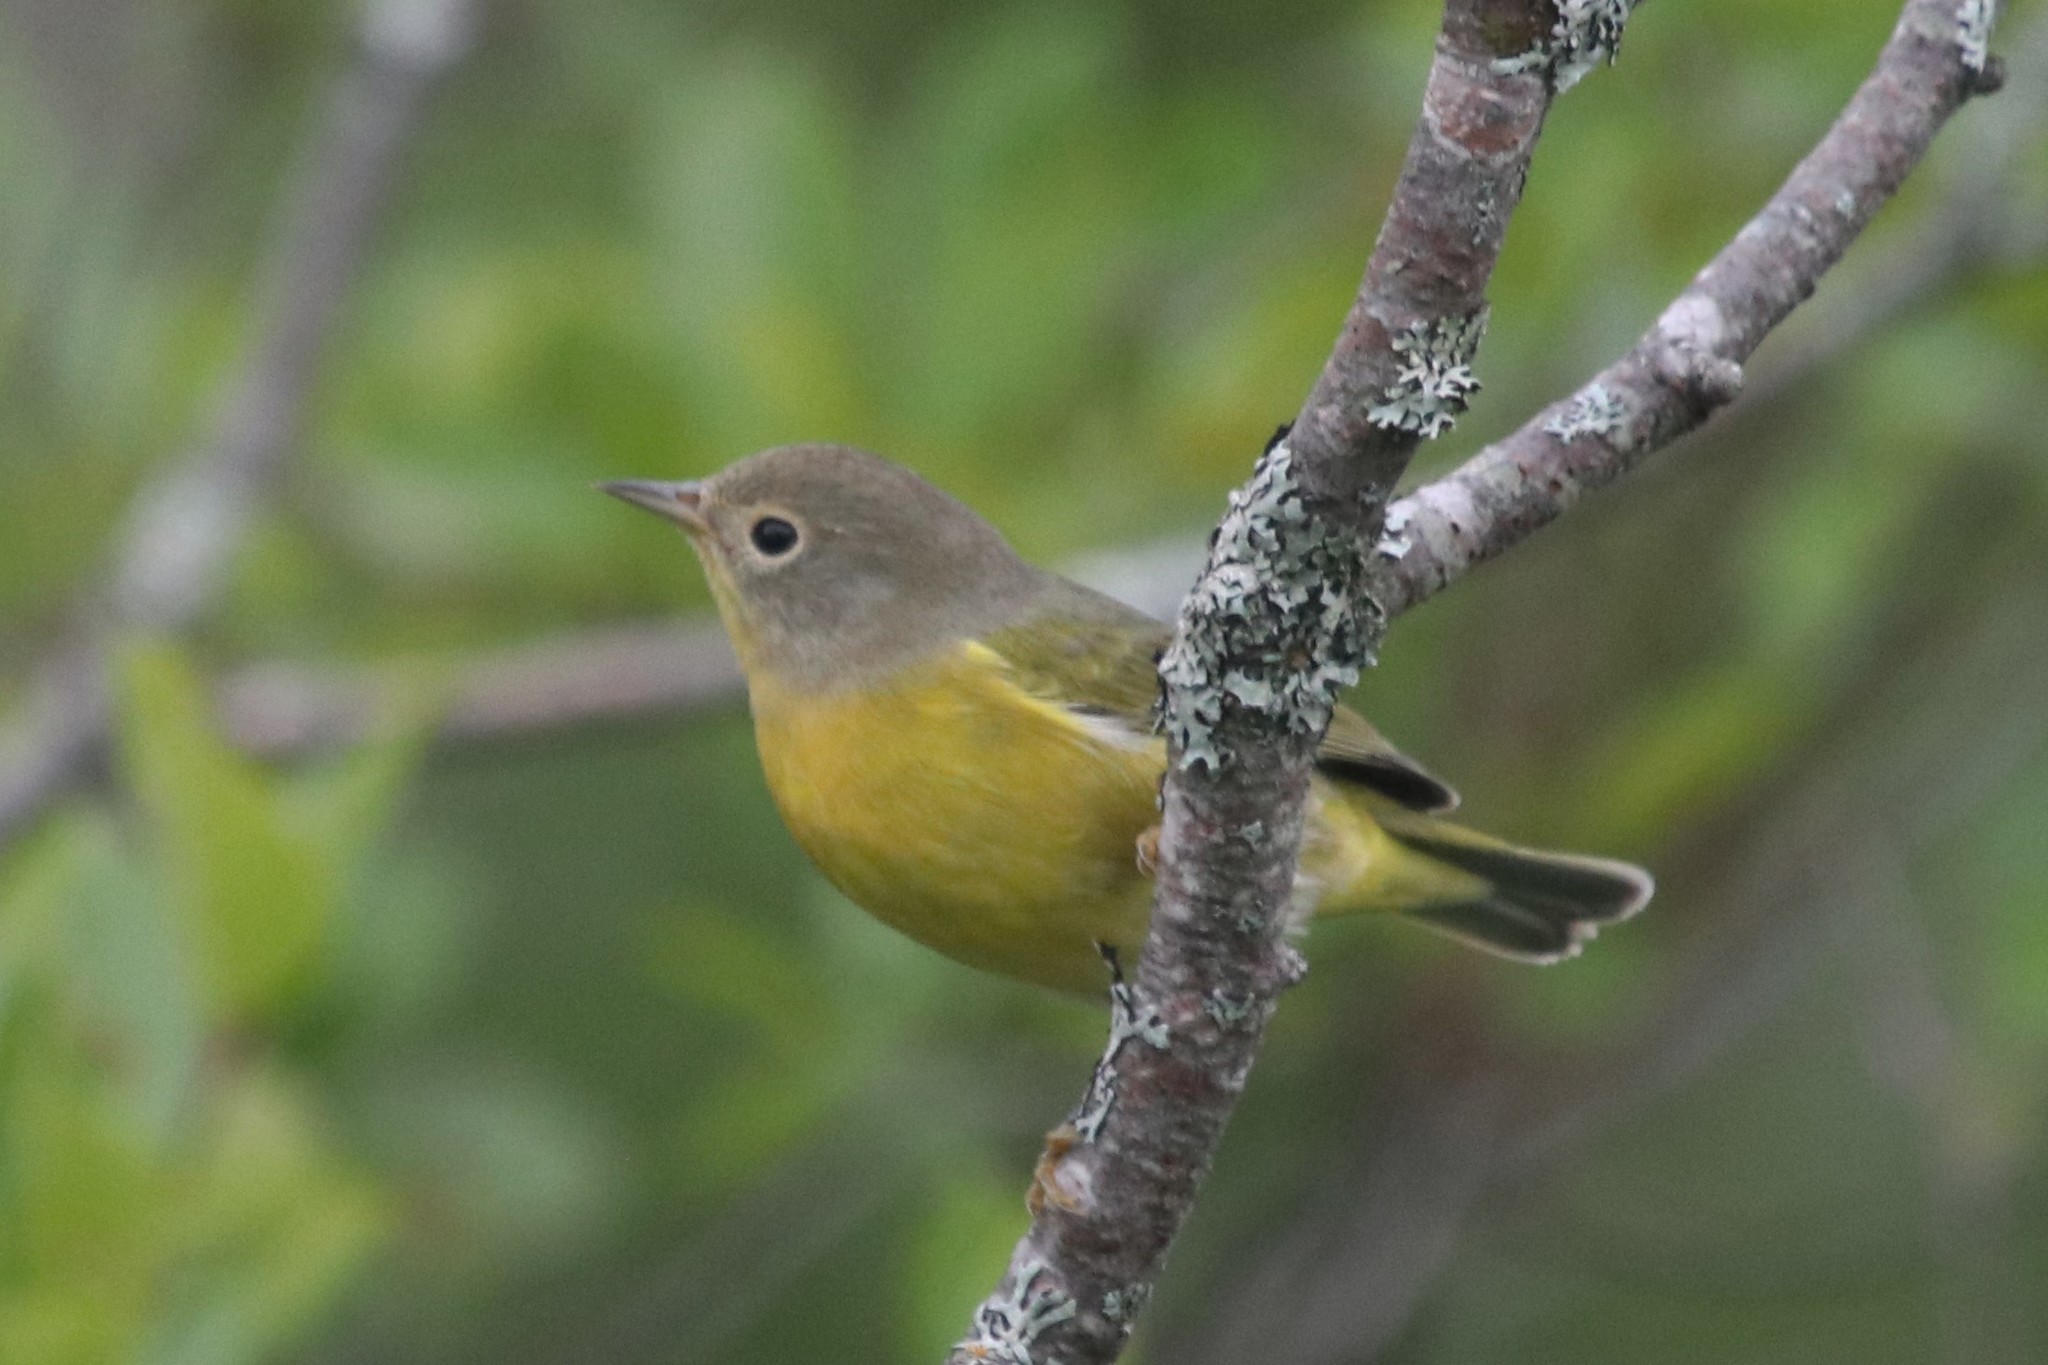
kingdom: Animalia
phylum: Chordata
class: Aves
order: Passeriformes
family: Parulidae
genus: Leiothlypis
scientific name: Leiothlypis ruficapilla
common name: Nashville warbler
